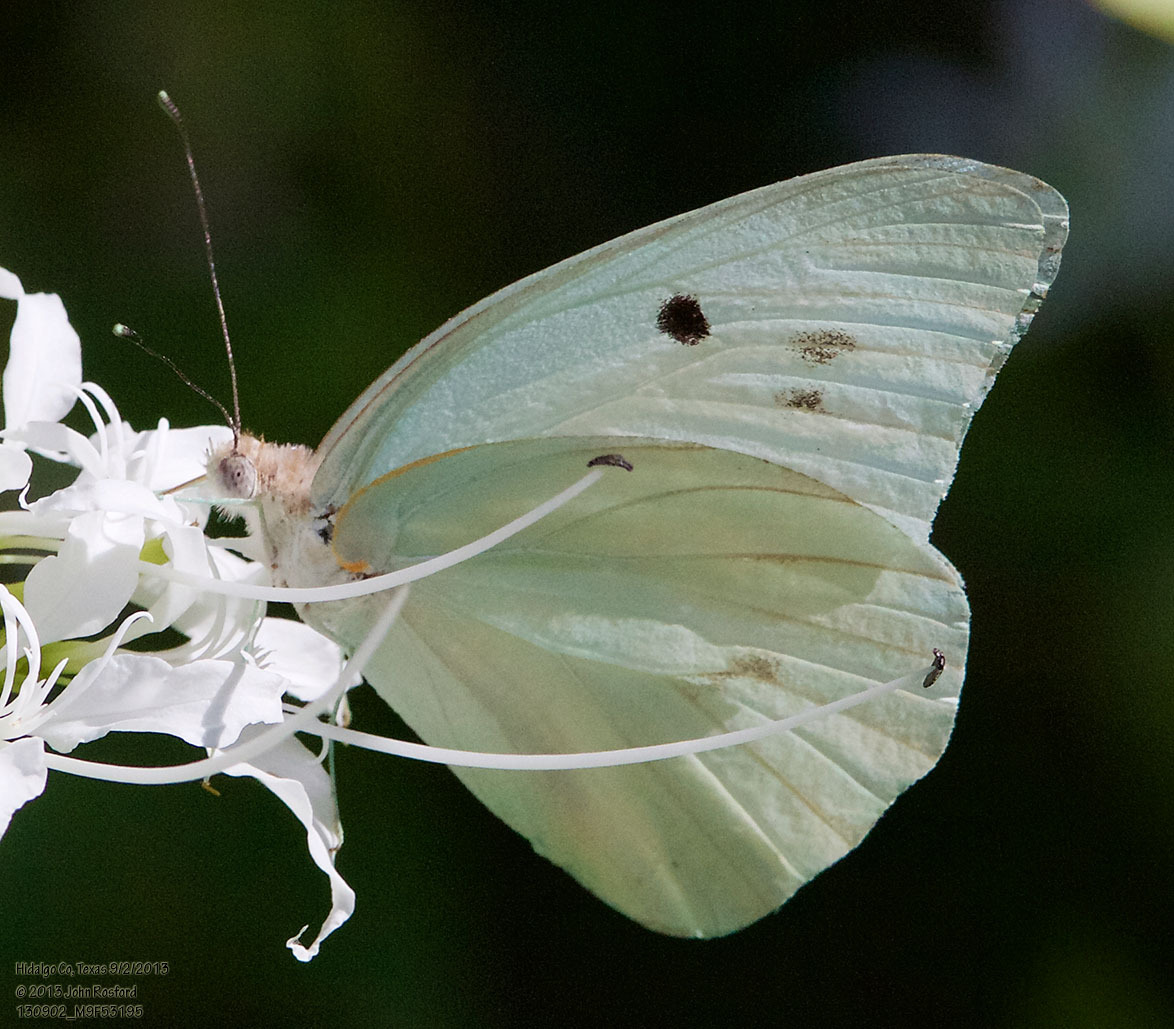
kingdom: Animalia
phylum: Arthropoda
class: Insecta
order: Lepidoptera
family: Pieridae
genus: Ganyra
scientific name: Ganyra josephina
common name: Giant white
